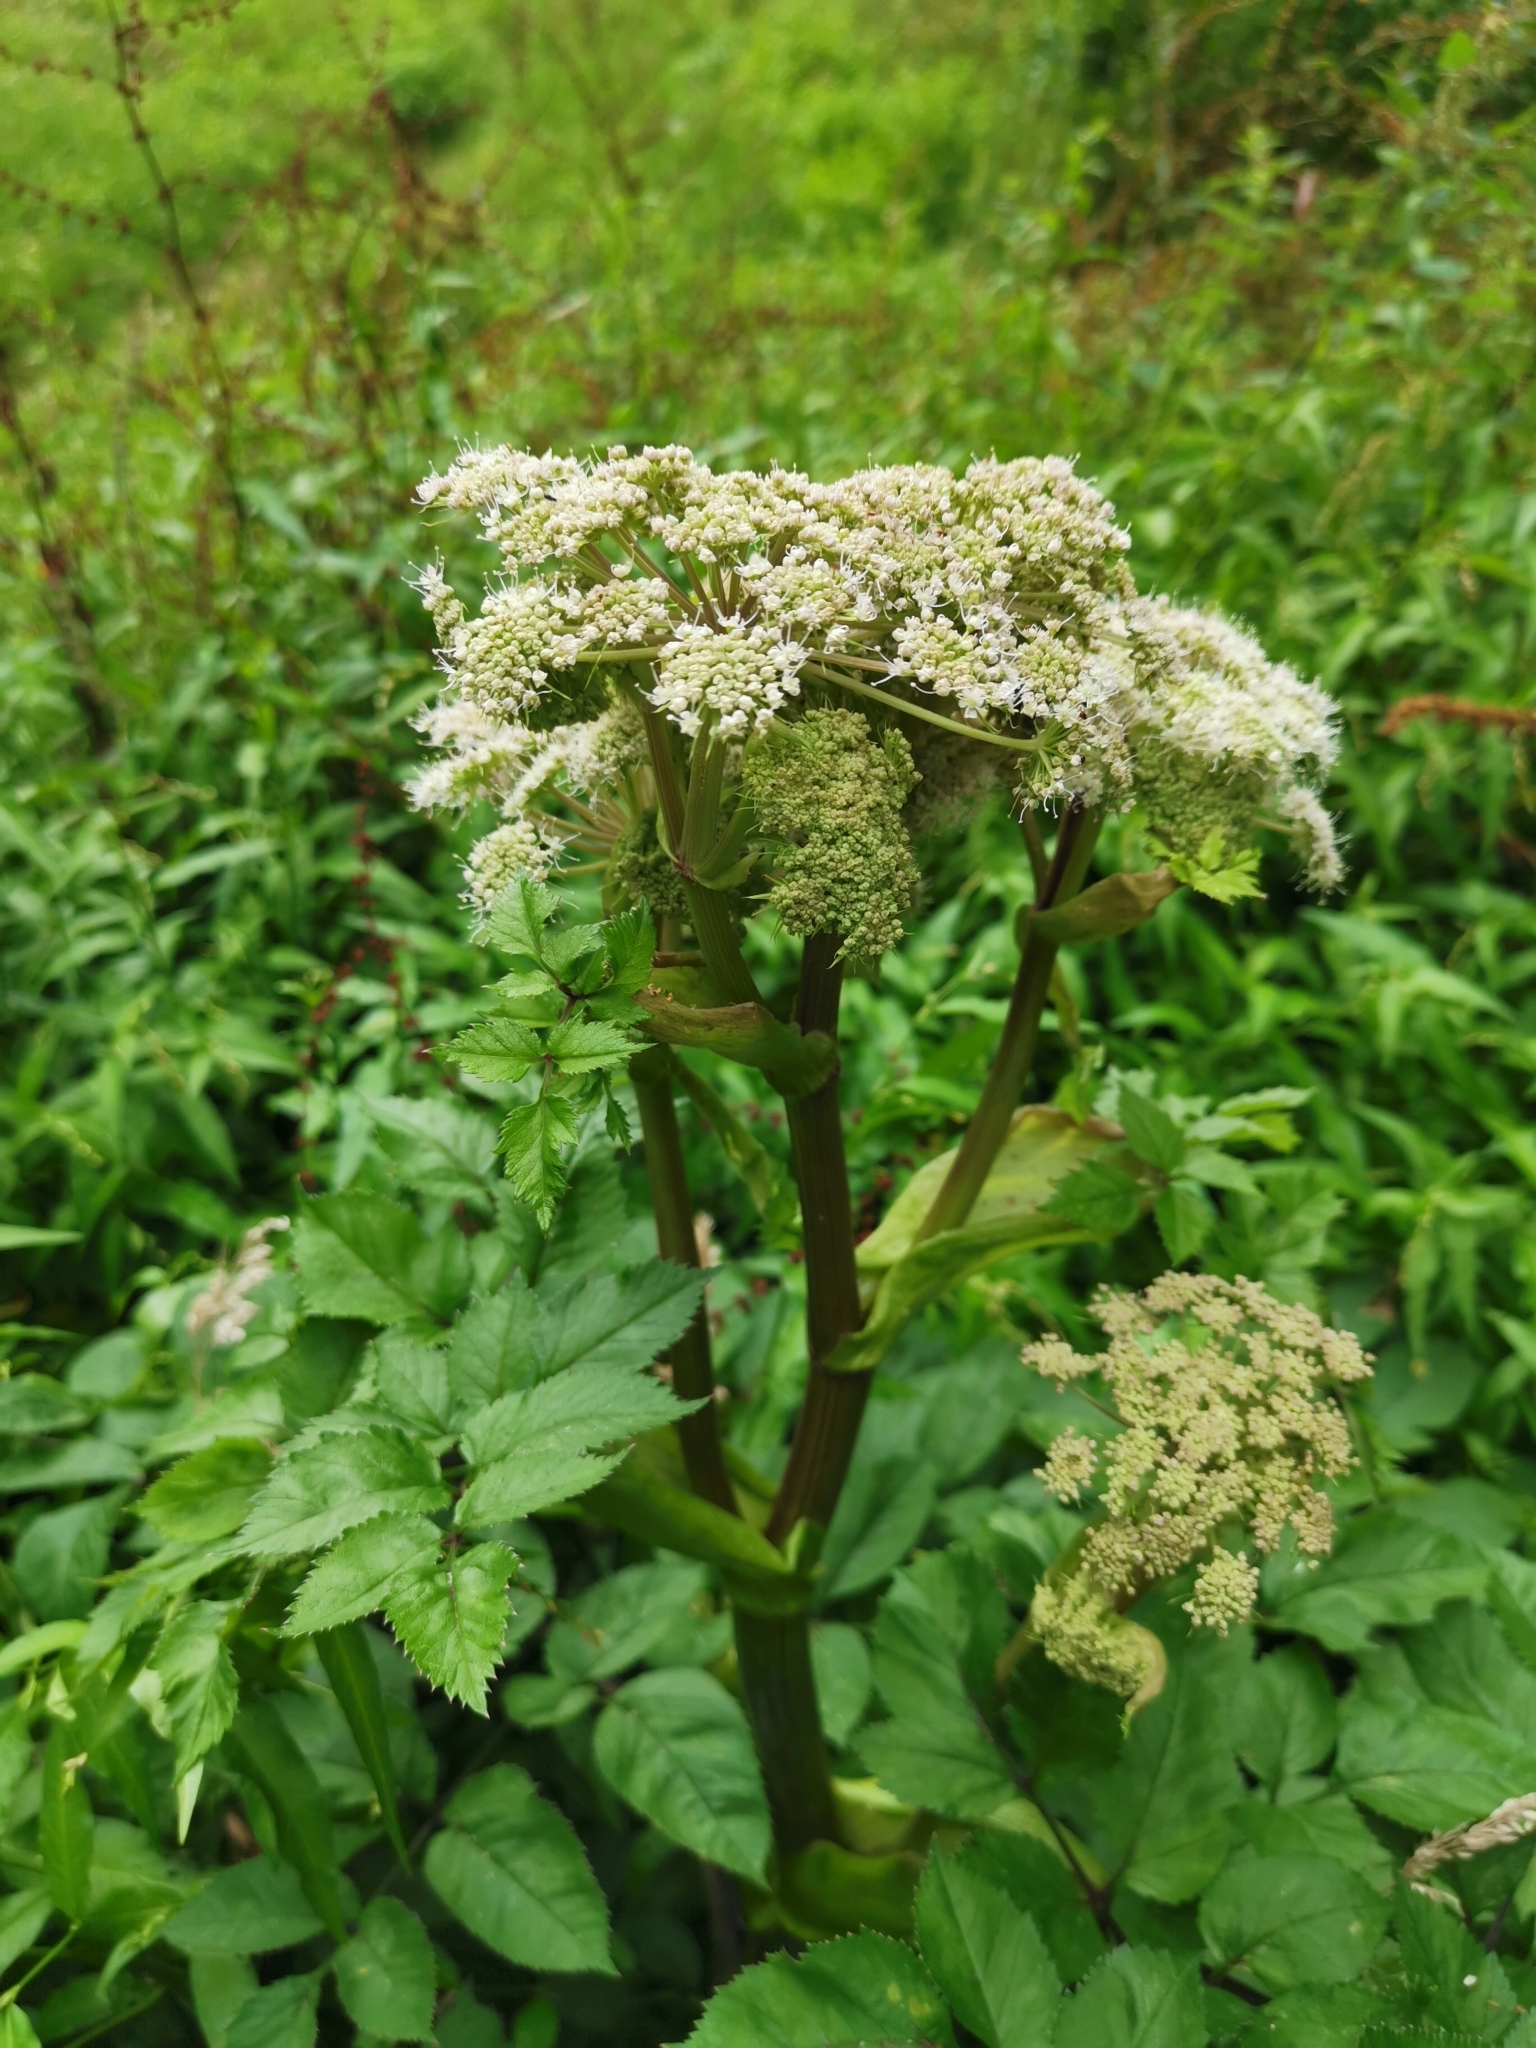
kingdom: Plantae
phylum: Tracheophyta
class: Magnoliopsida
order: Apiales
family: Apiaceae
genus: Angelica
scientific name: Angelica sylvestris
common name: Wild angelica
